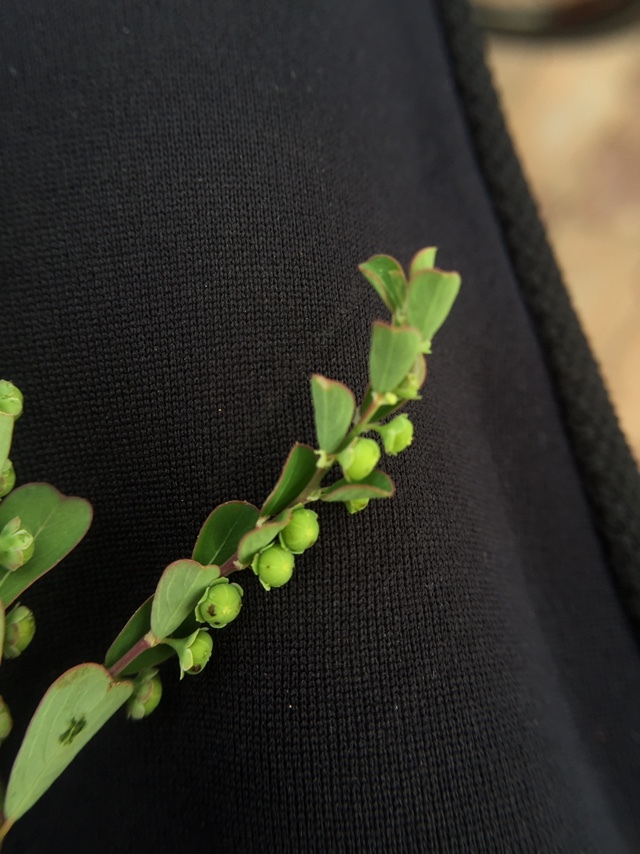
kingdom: Plantae
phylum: Tracheophyta
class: Magnoliopsida
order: Malpighiales
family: Phyllanthaceae
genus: Phyllanthus
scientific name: Phyllanthus maderaspatensis
